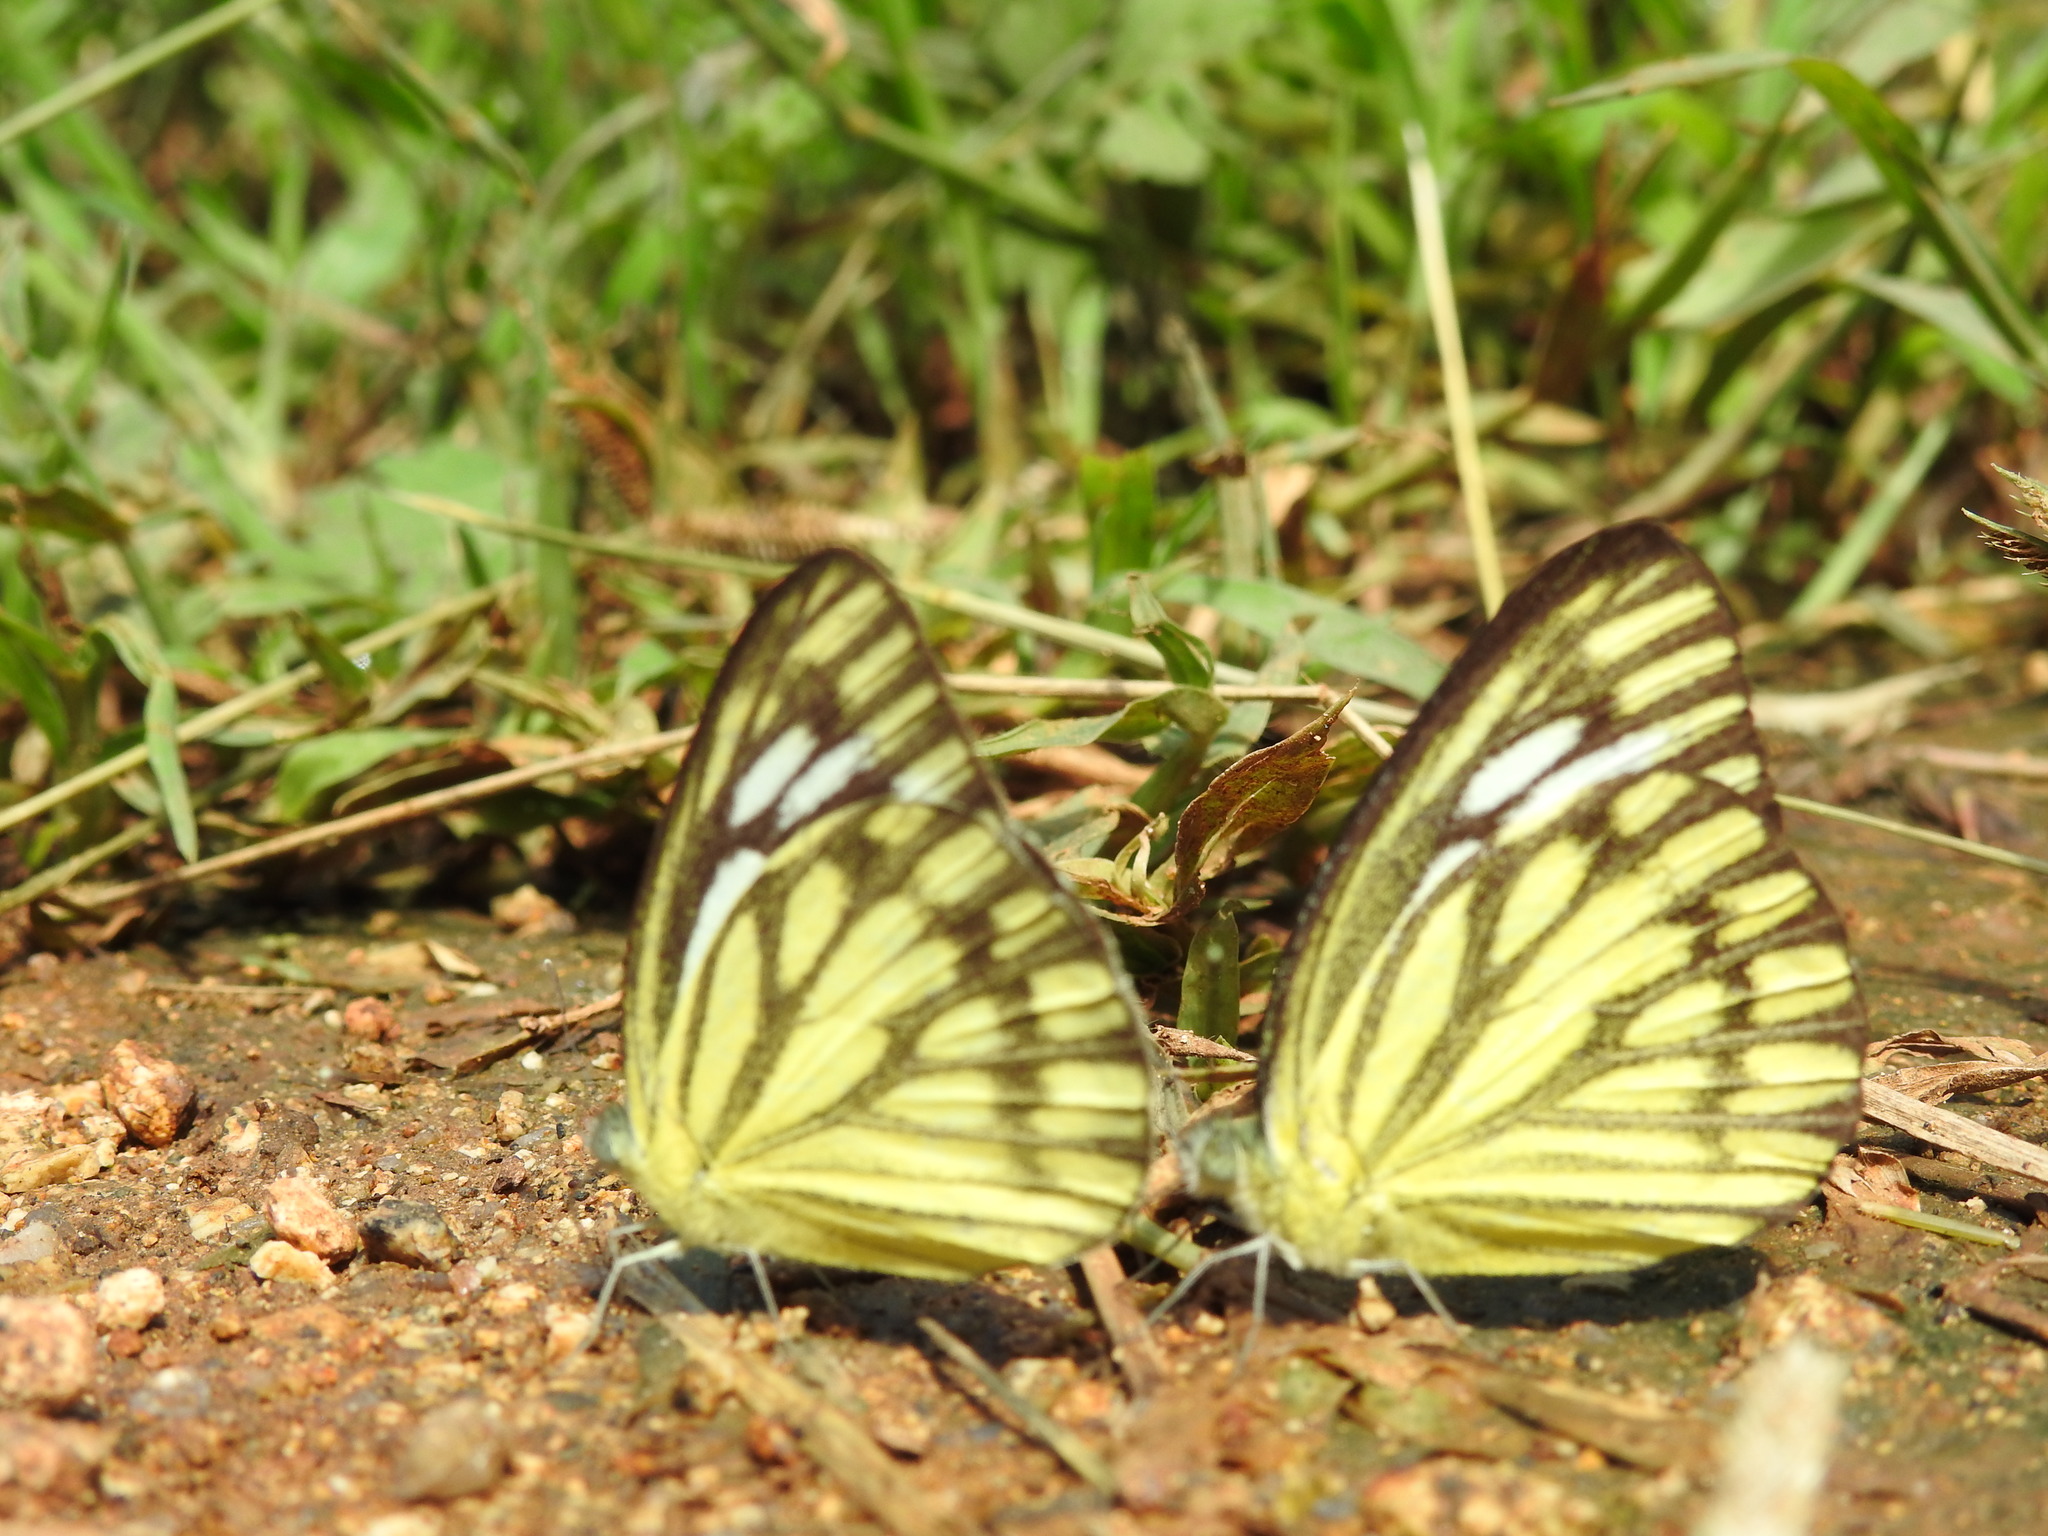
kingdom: Animalia
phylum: Arthropoda
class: Insecta
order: Lepidoptera
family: Pieridae
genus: Cepora
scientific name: Cepora nerissa
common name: Common gull
